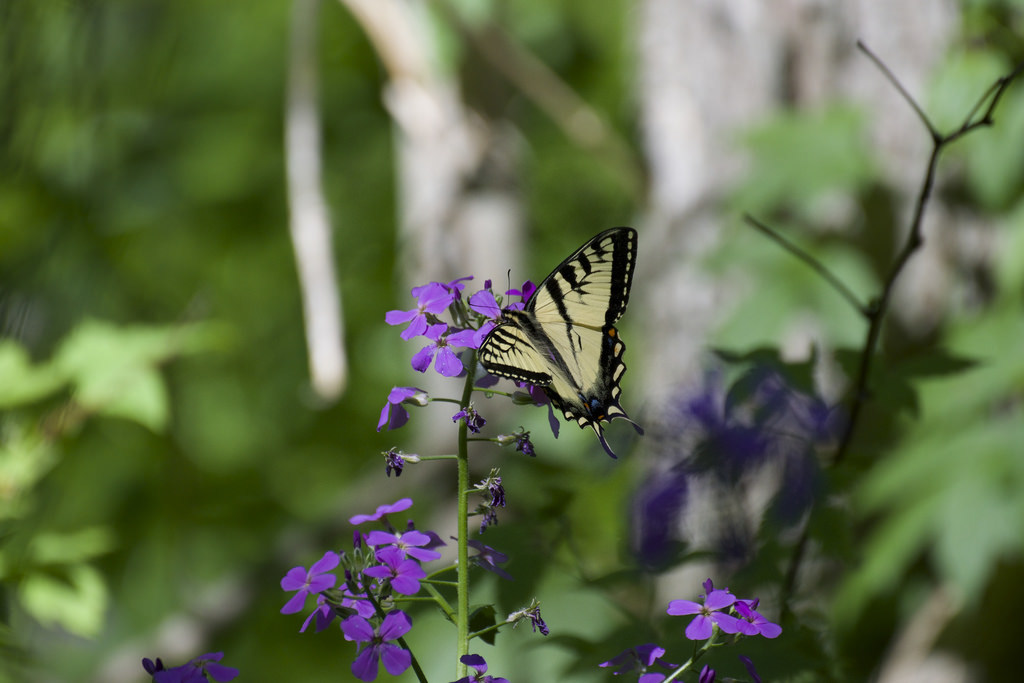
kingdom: Animalia
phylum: Arthropoda
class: Insecta
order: Lepidoptera
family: Papilionidae
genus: Papilio
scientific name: Papilio canadensis
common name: Canadian tiger swallowtail
